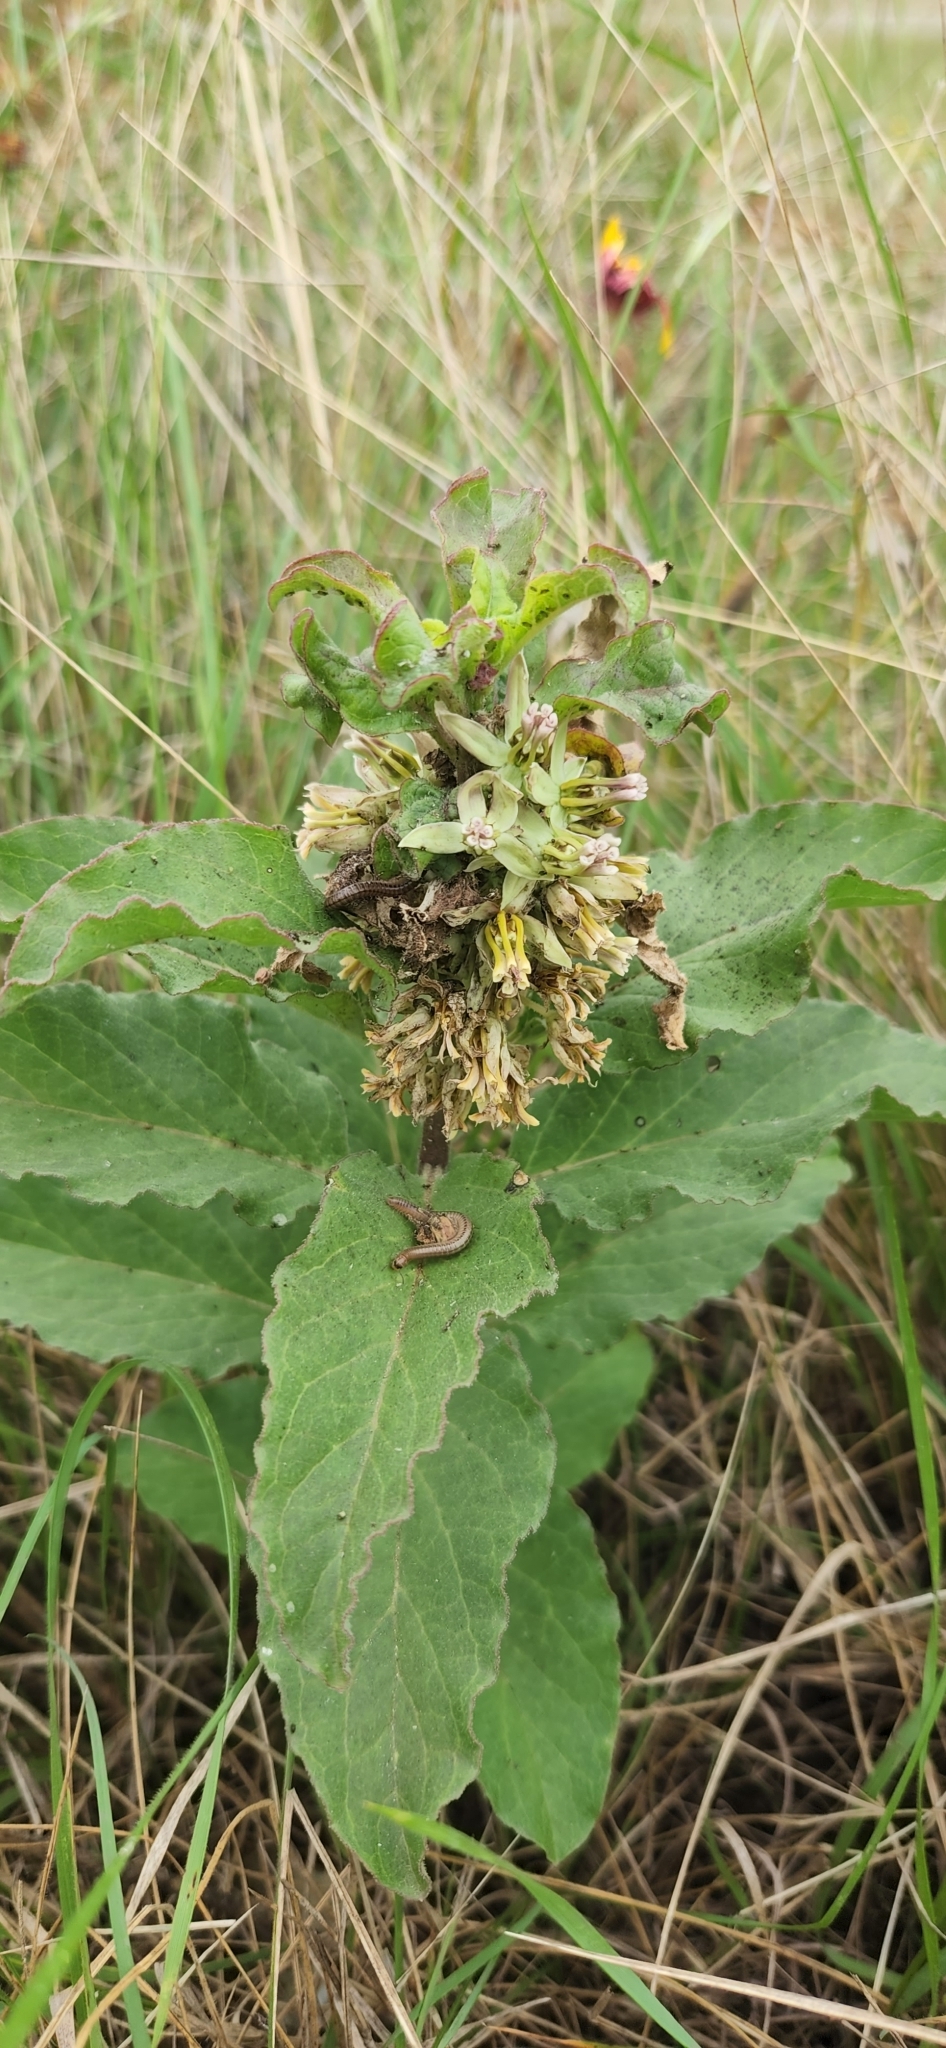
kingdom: Plantae
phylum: Tracheophyta
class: Magnoliopsida
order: Gentianales
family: Apocynaceae
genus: Asclepias
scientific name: Asclepias oenotheroides
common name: Zizotes milkweed
